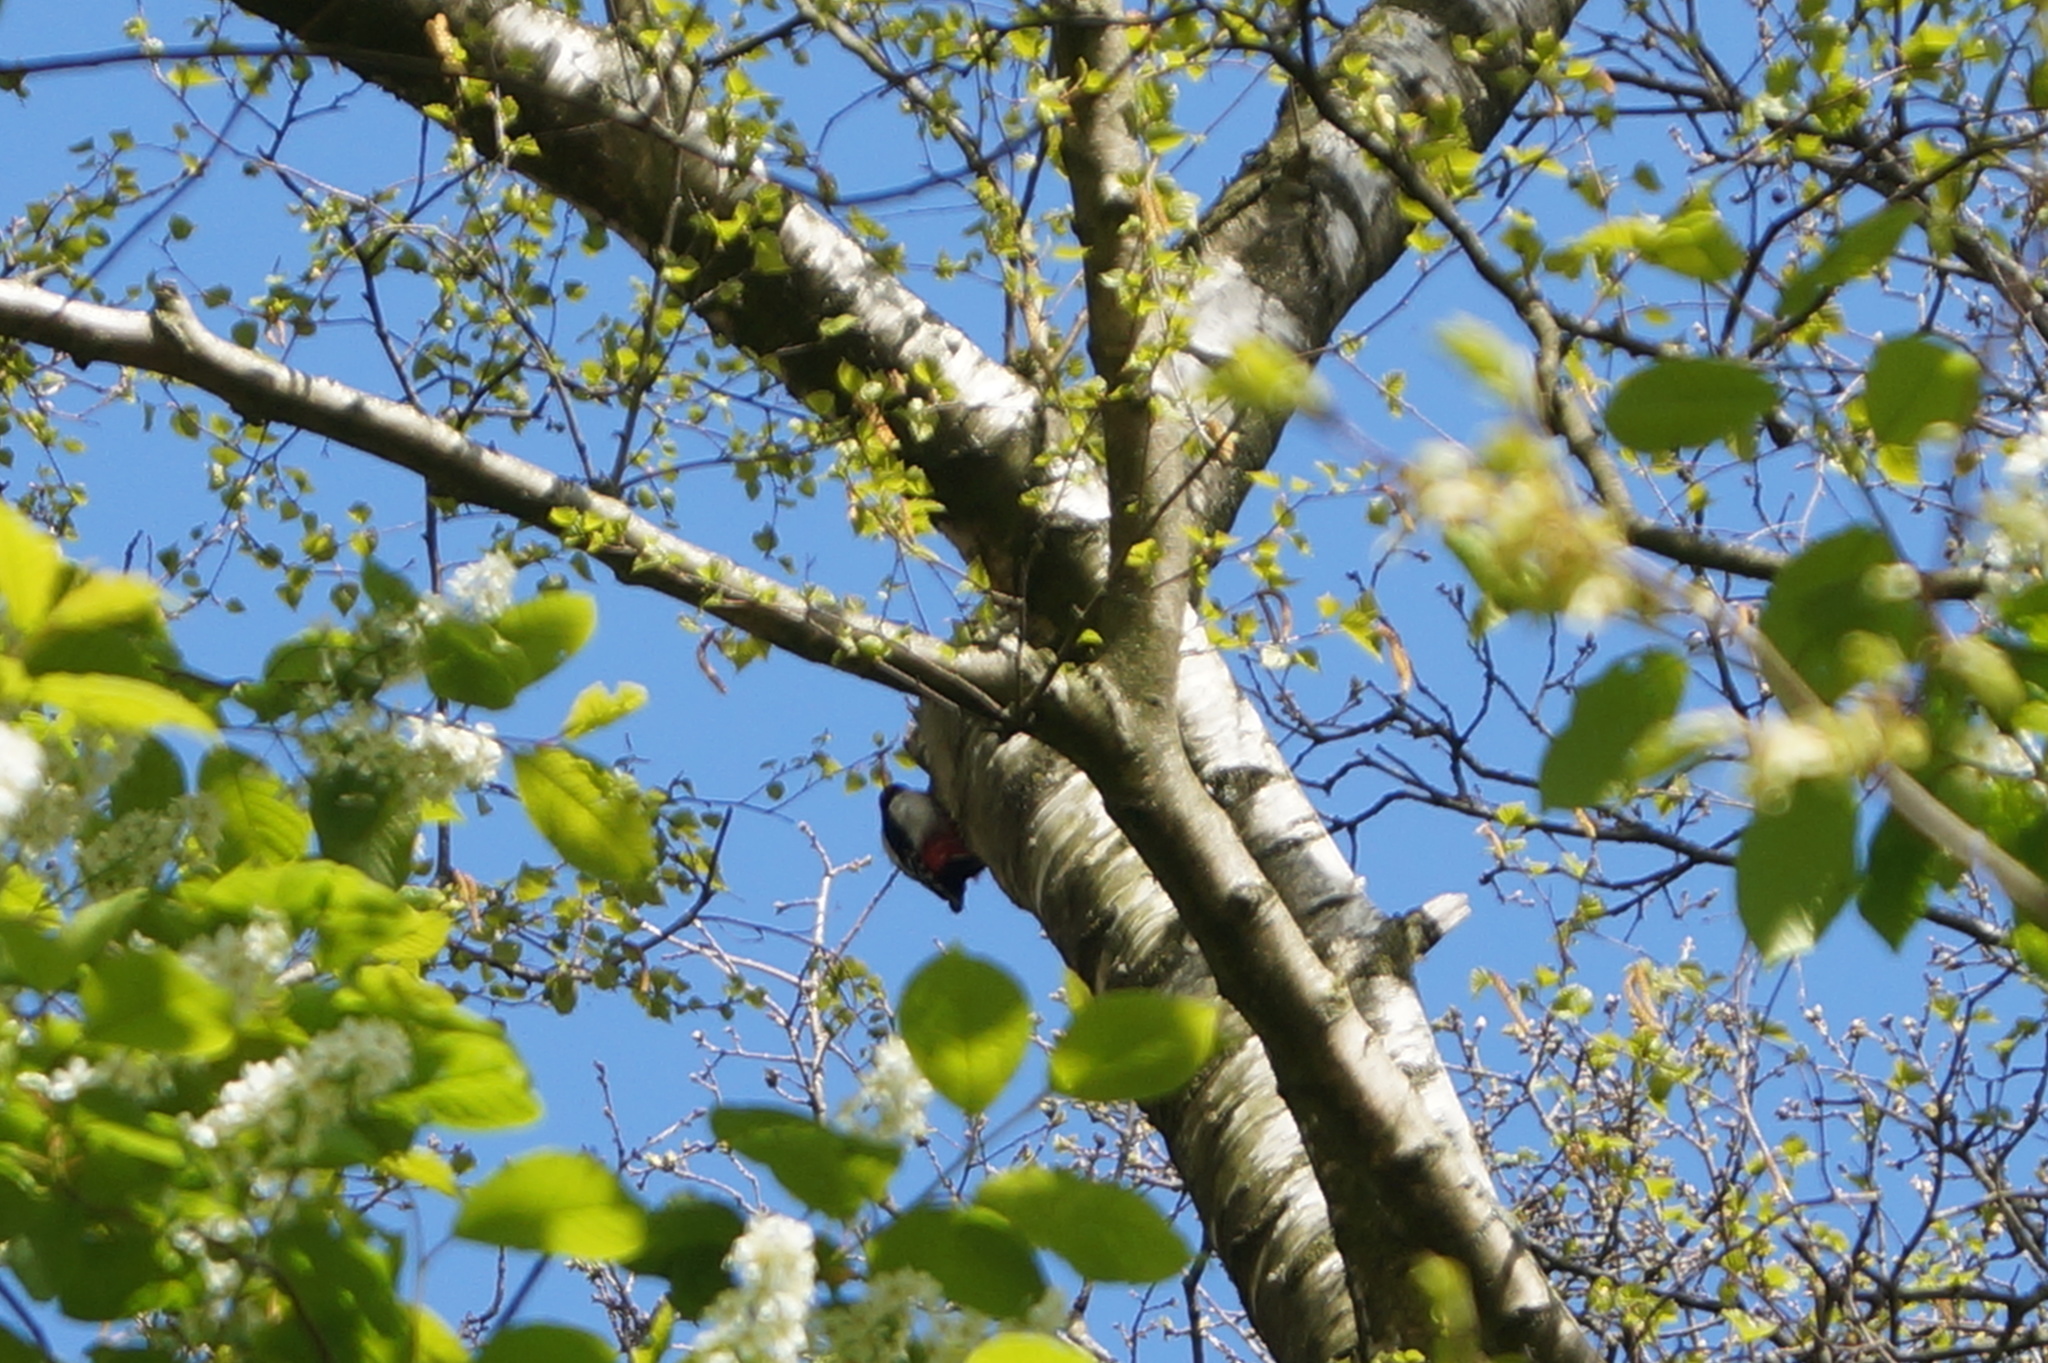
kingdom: Animalia
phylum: Chordata
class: Aves
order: Piciformes
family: Picidae
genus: Dendrocopos
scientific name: Dendrocopos major
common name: Great spotted woodpecker
